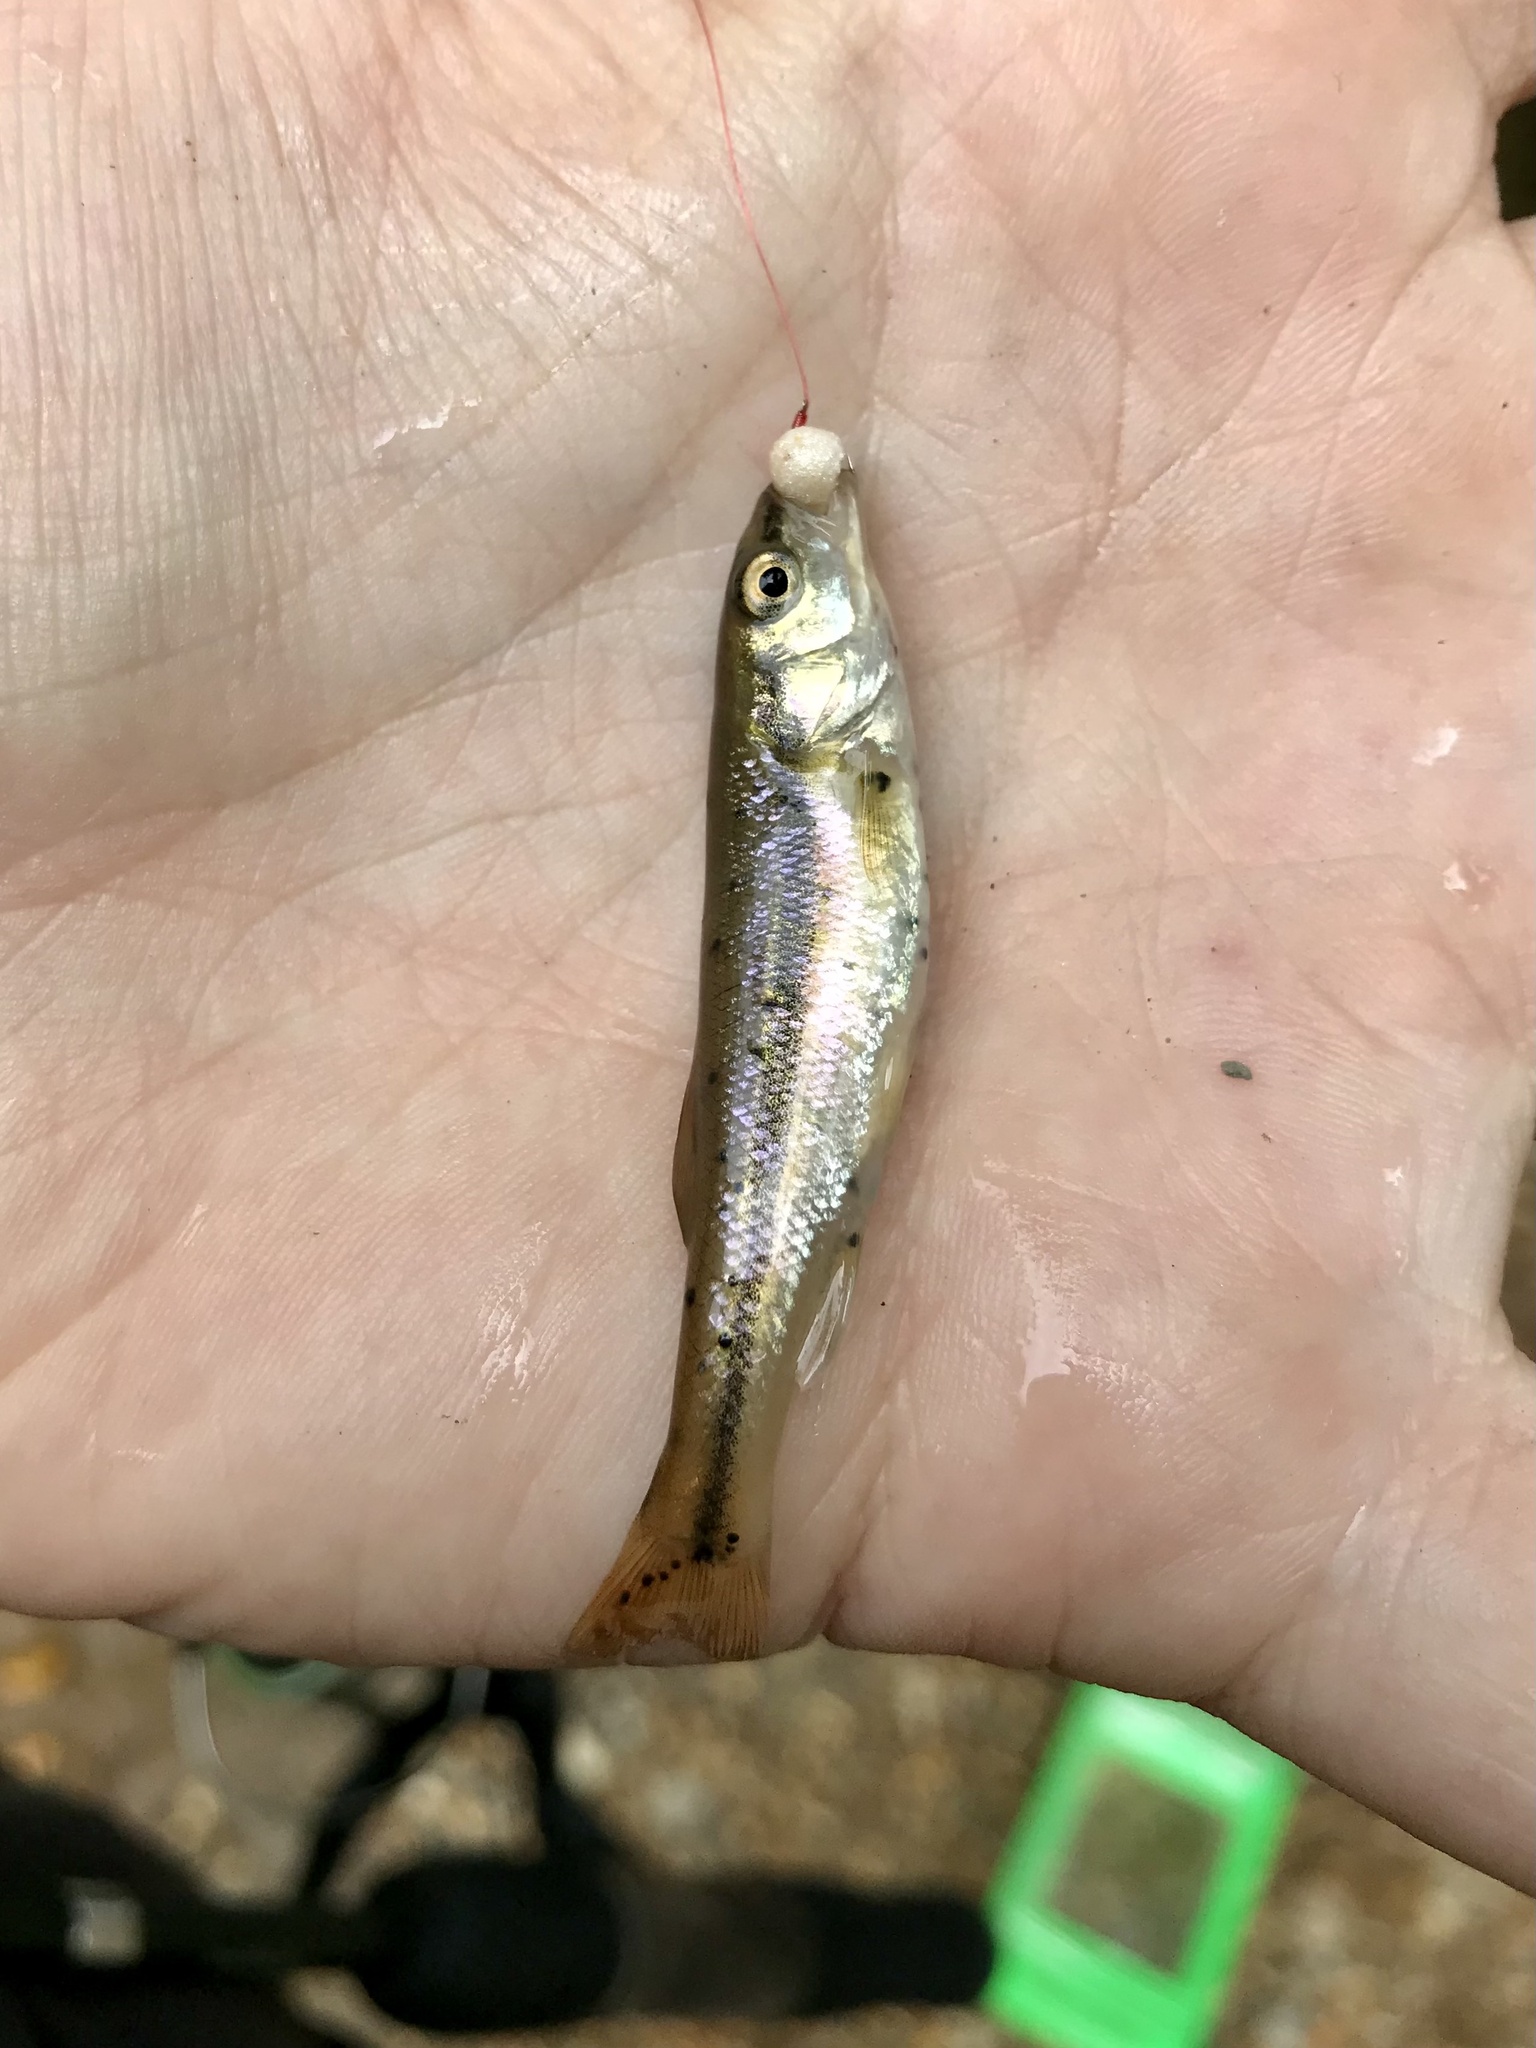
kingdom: Animalia
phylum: Chordata
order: Cypriniformes
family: Cyprinidae
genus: Semotilus
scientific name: Semotilus atromaculatus
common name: Creek chub
